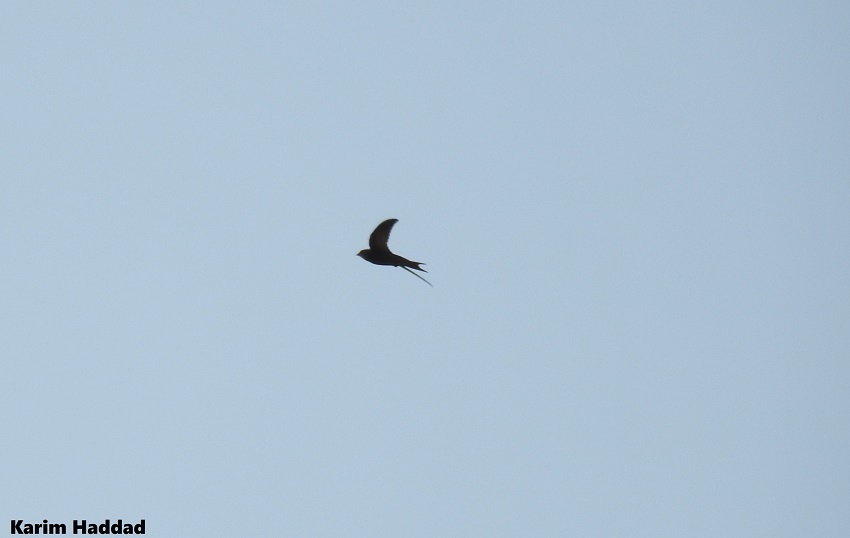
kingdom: Animalia
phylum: Chordata
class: Aves
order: Apodiformes
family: Apodidae
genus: Apus
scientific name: Apus apus
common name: Common swift
